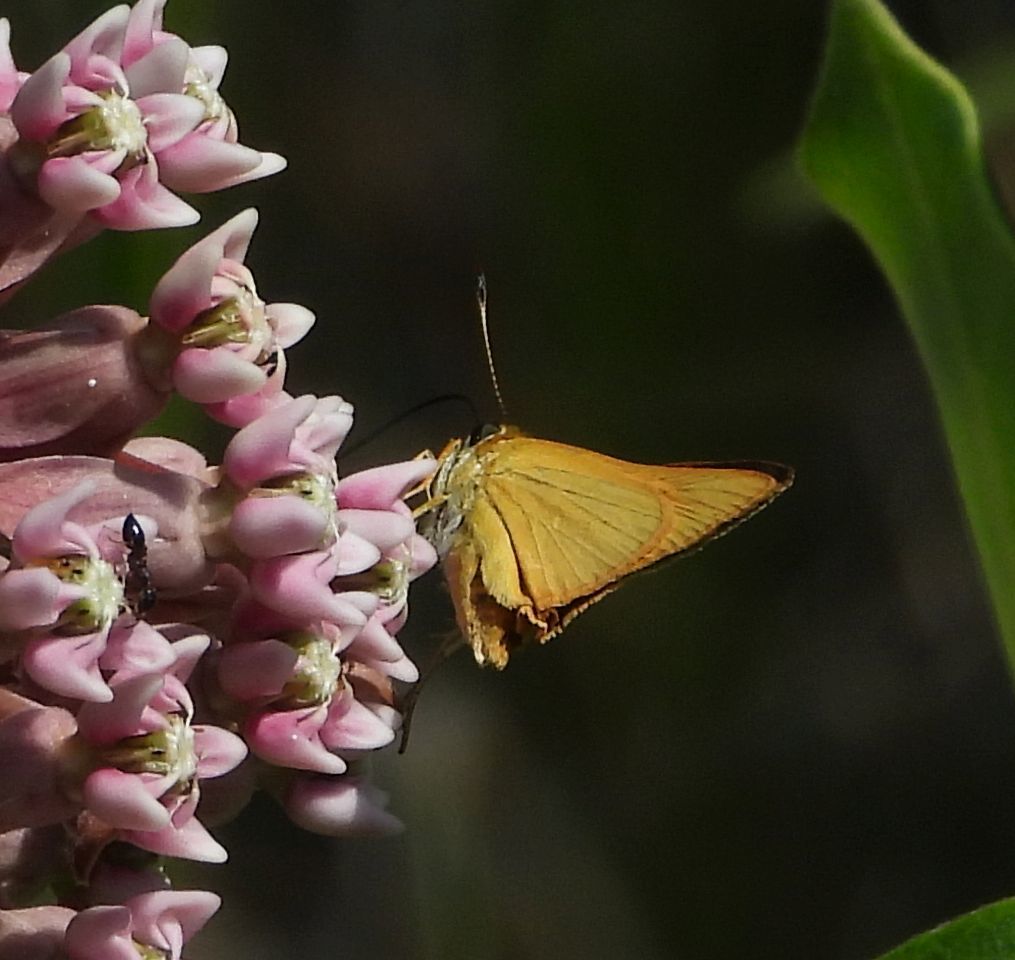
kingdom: Animalia
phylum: Arthropoda
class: Insecta
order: Lepidoptera
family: Hesperiidae
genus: Atrytone
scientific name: Atrytone delaware
